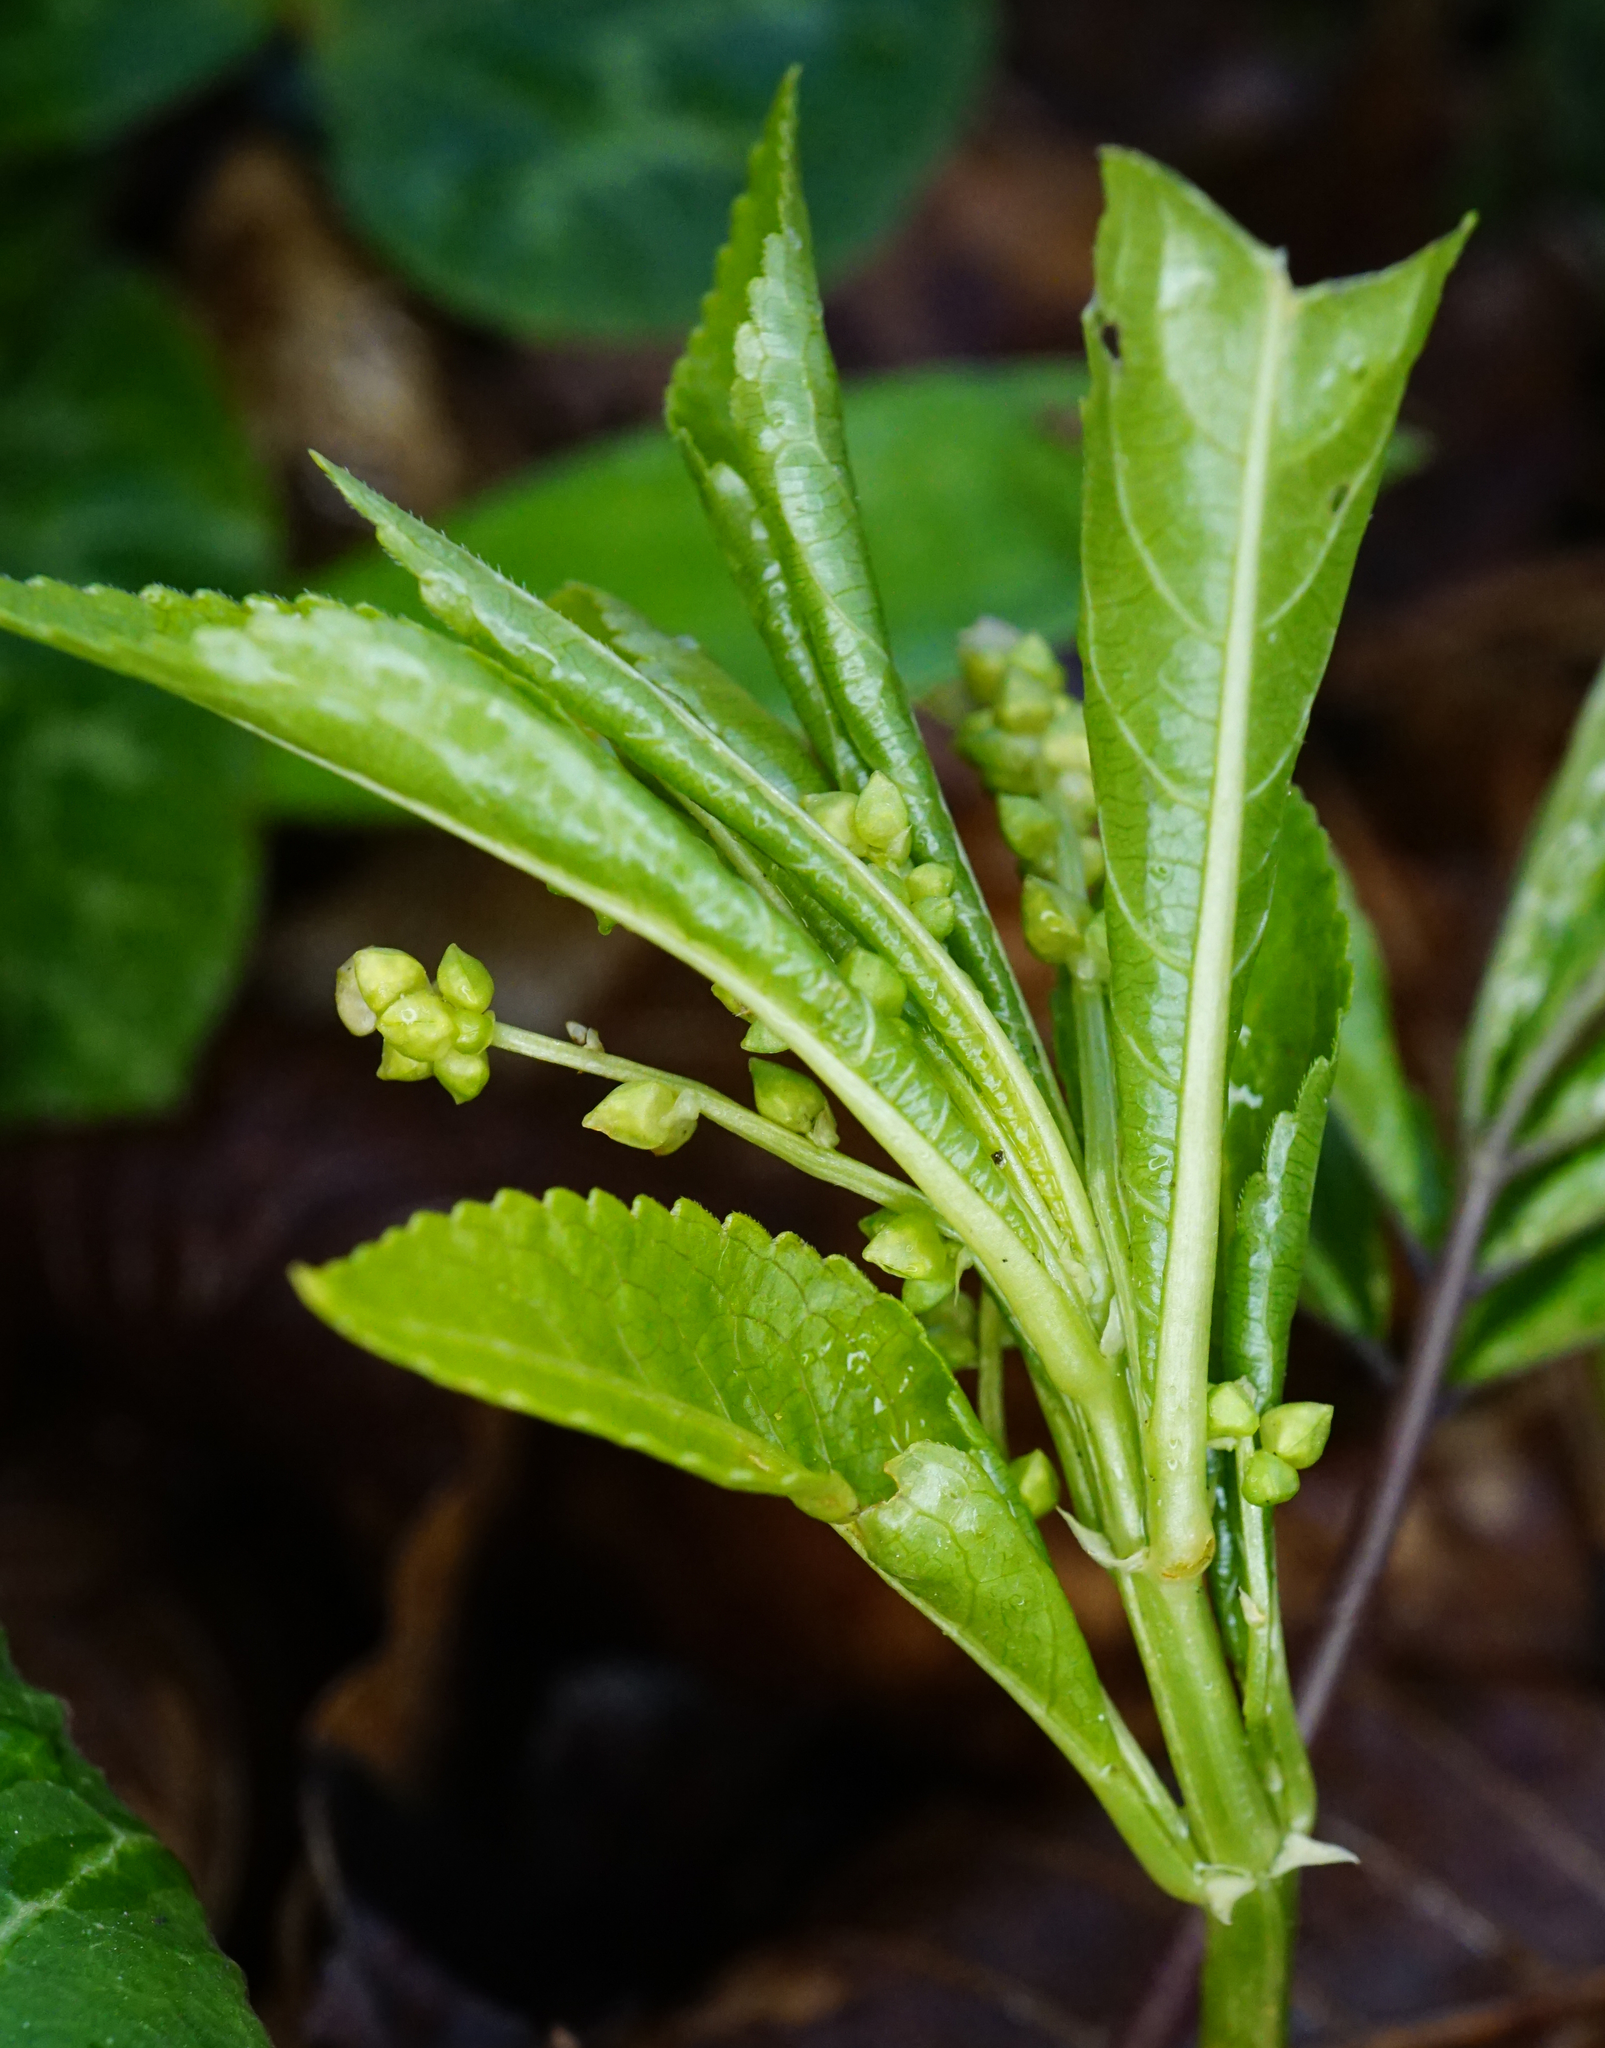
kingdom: Plantae
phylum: Tracheophyta
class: Magnoliopsida
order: Malpighiales
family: Euphorbiaceae
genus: Mercurialis
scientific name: Mercurialis perennis
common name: Dog mercury
